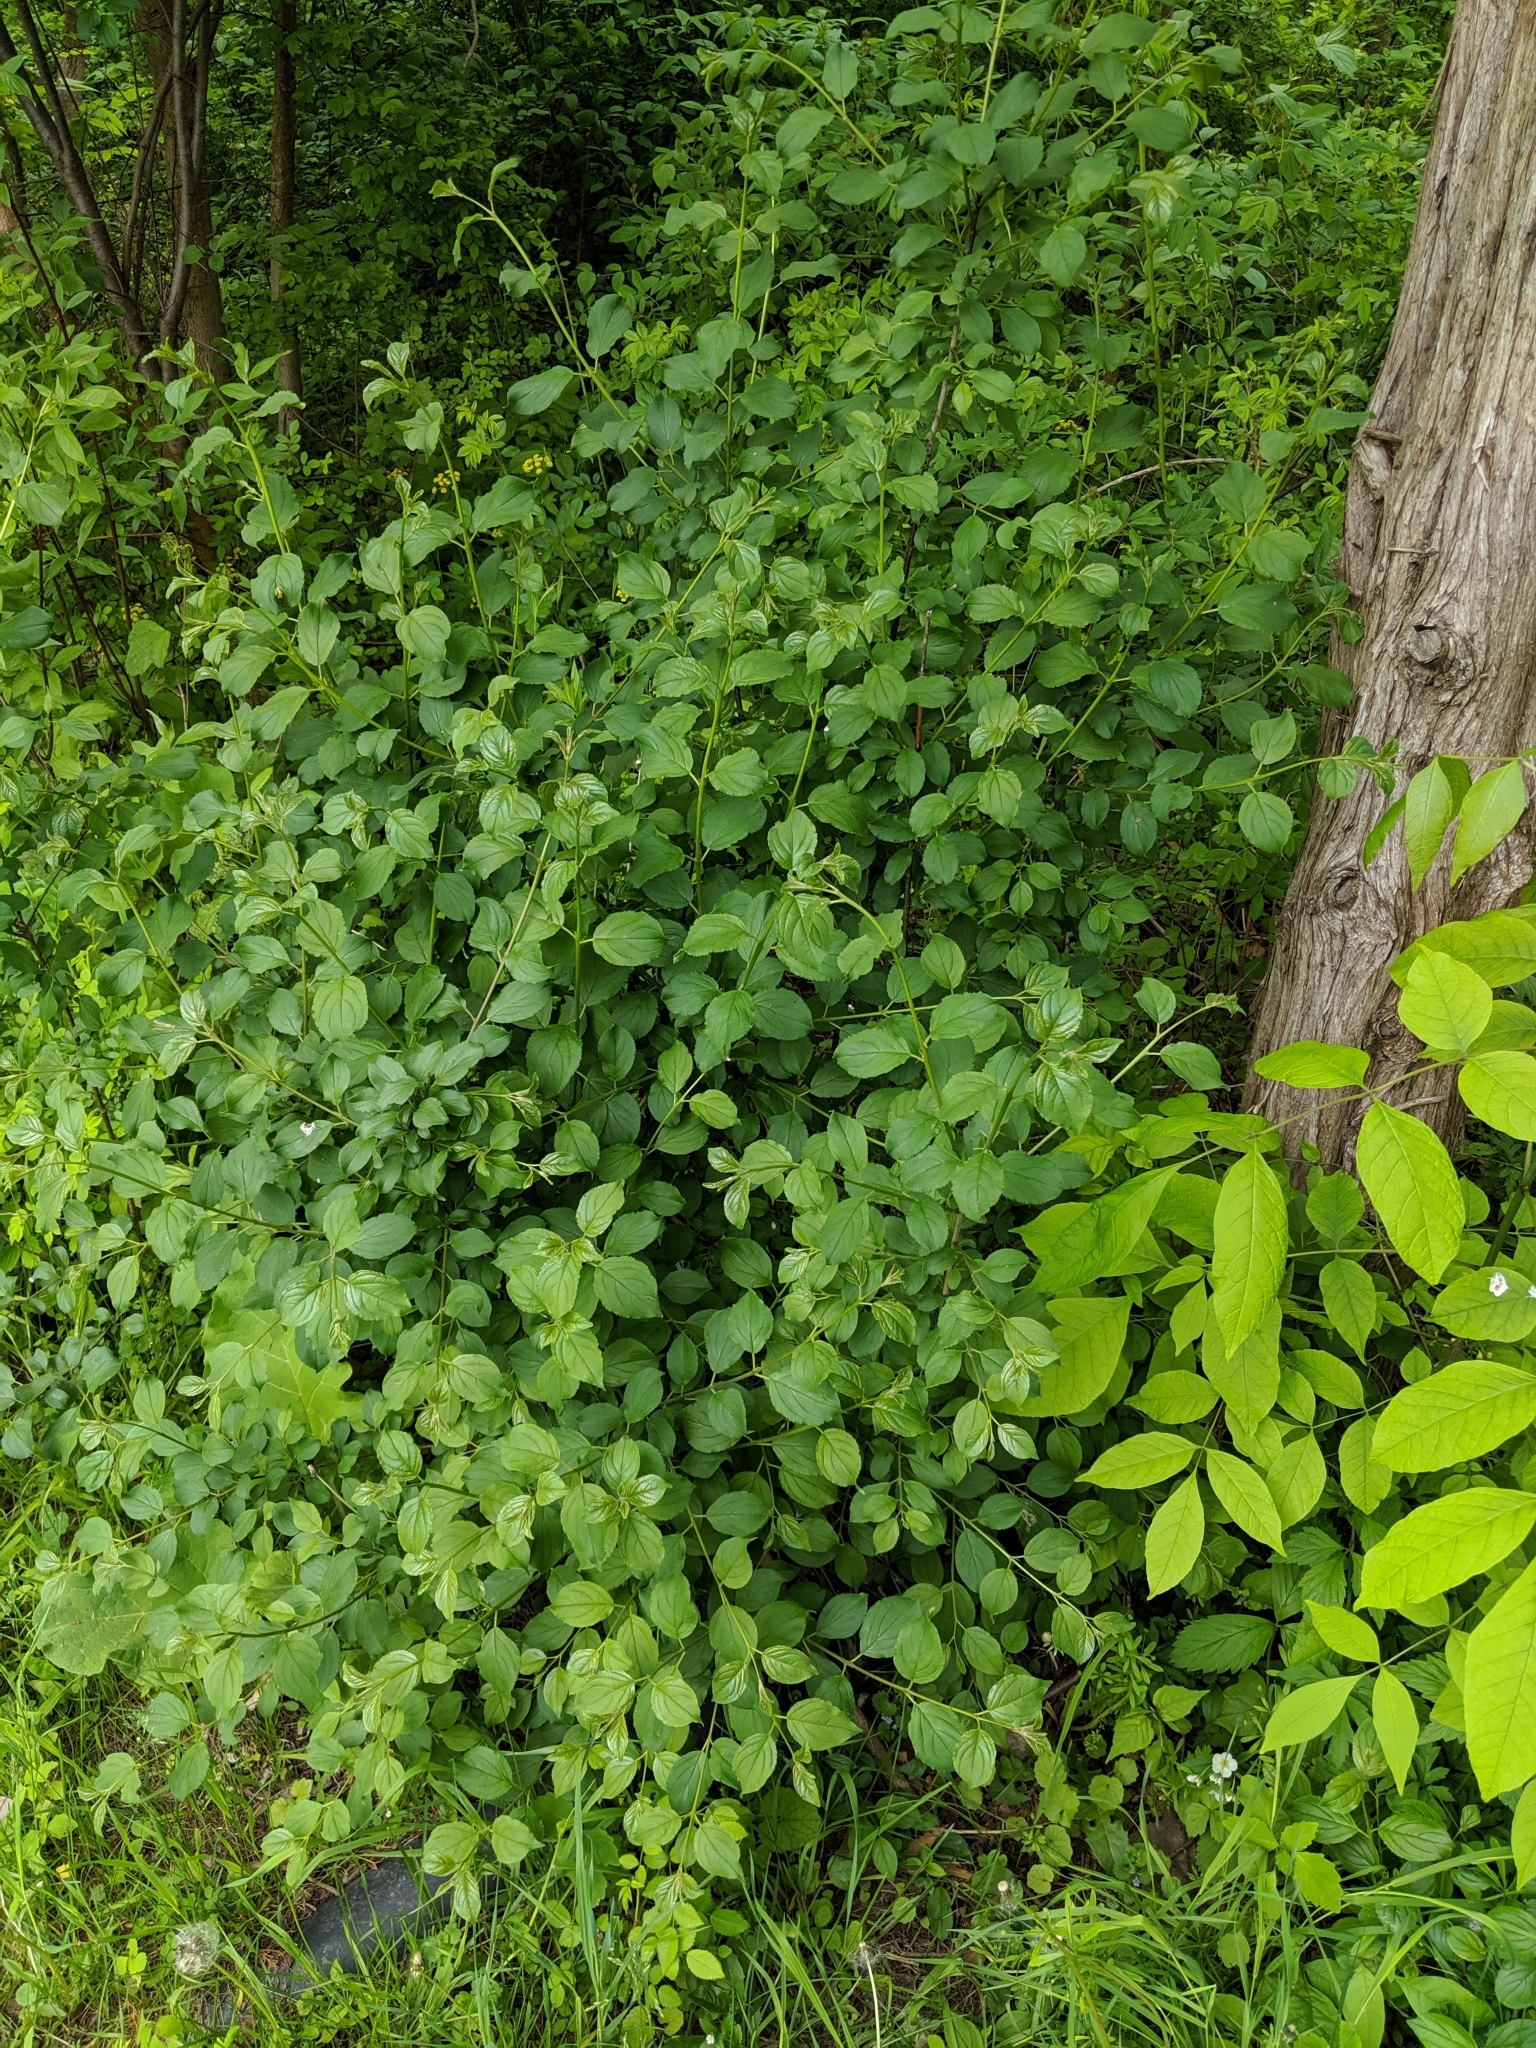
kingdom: Plantae
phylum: Tracheophyta
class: Magnoliopsida
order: Rosales
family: Rhamnaceae
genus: Rhamnus
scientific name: Rhamnus cathartica
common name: Common buckthorn
